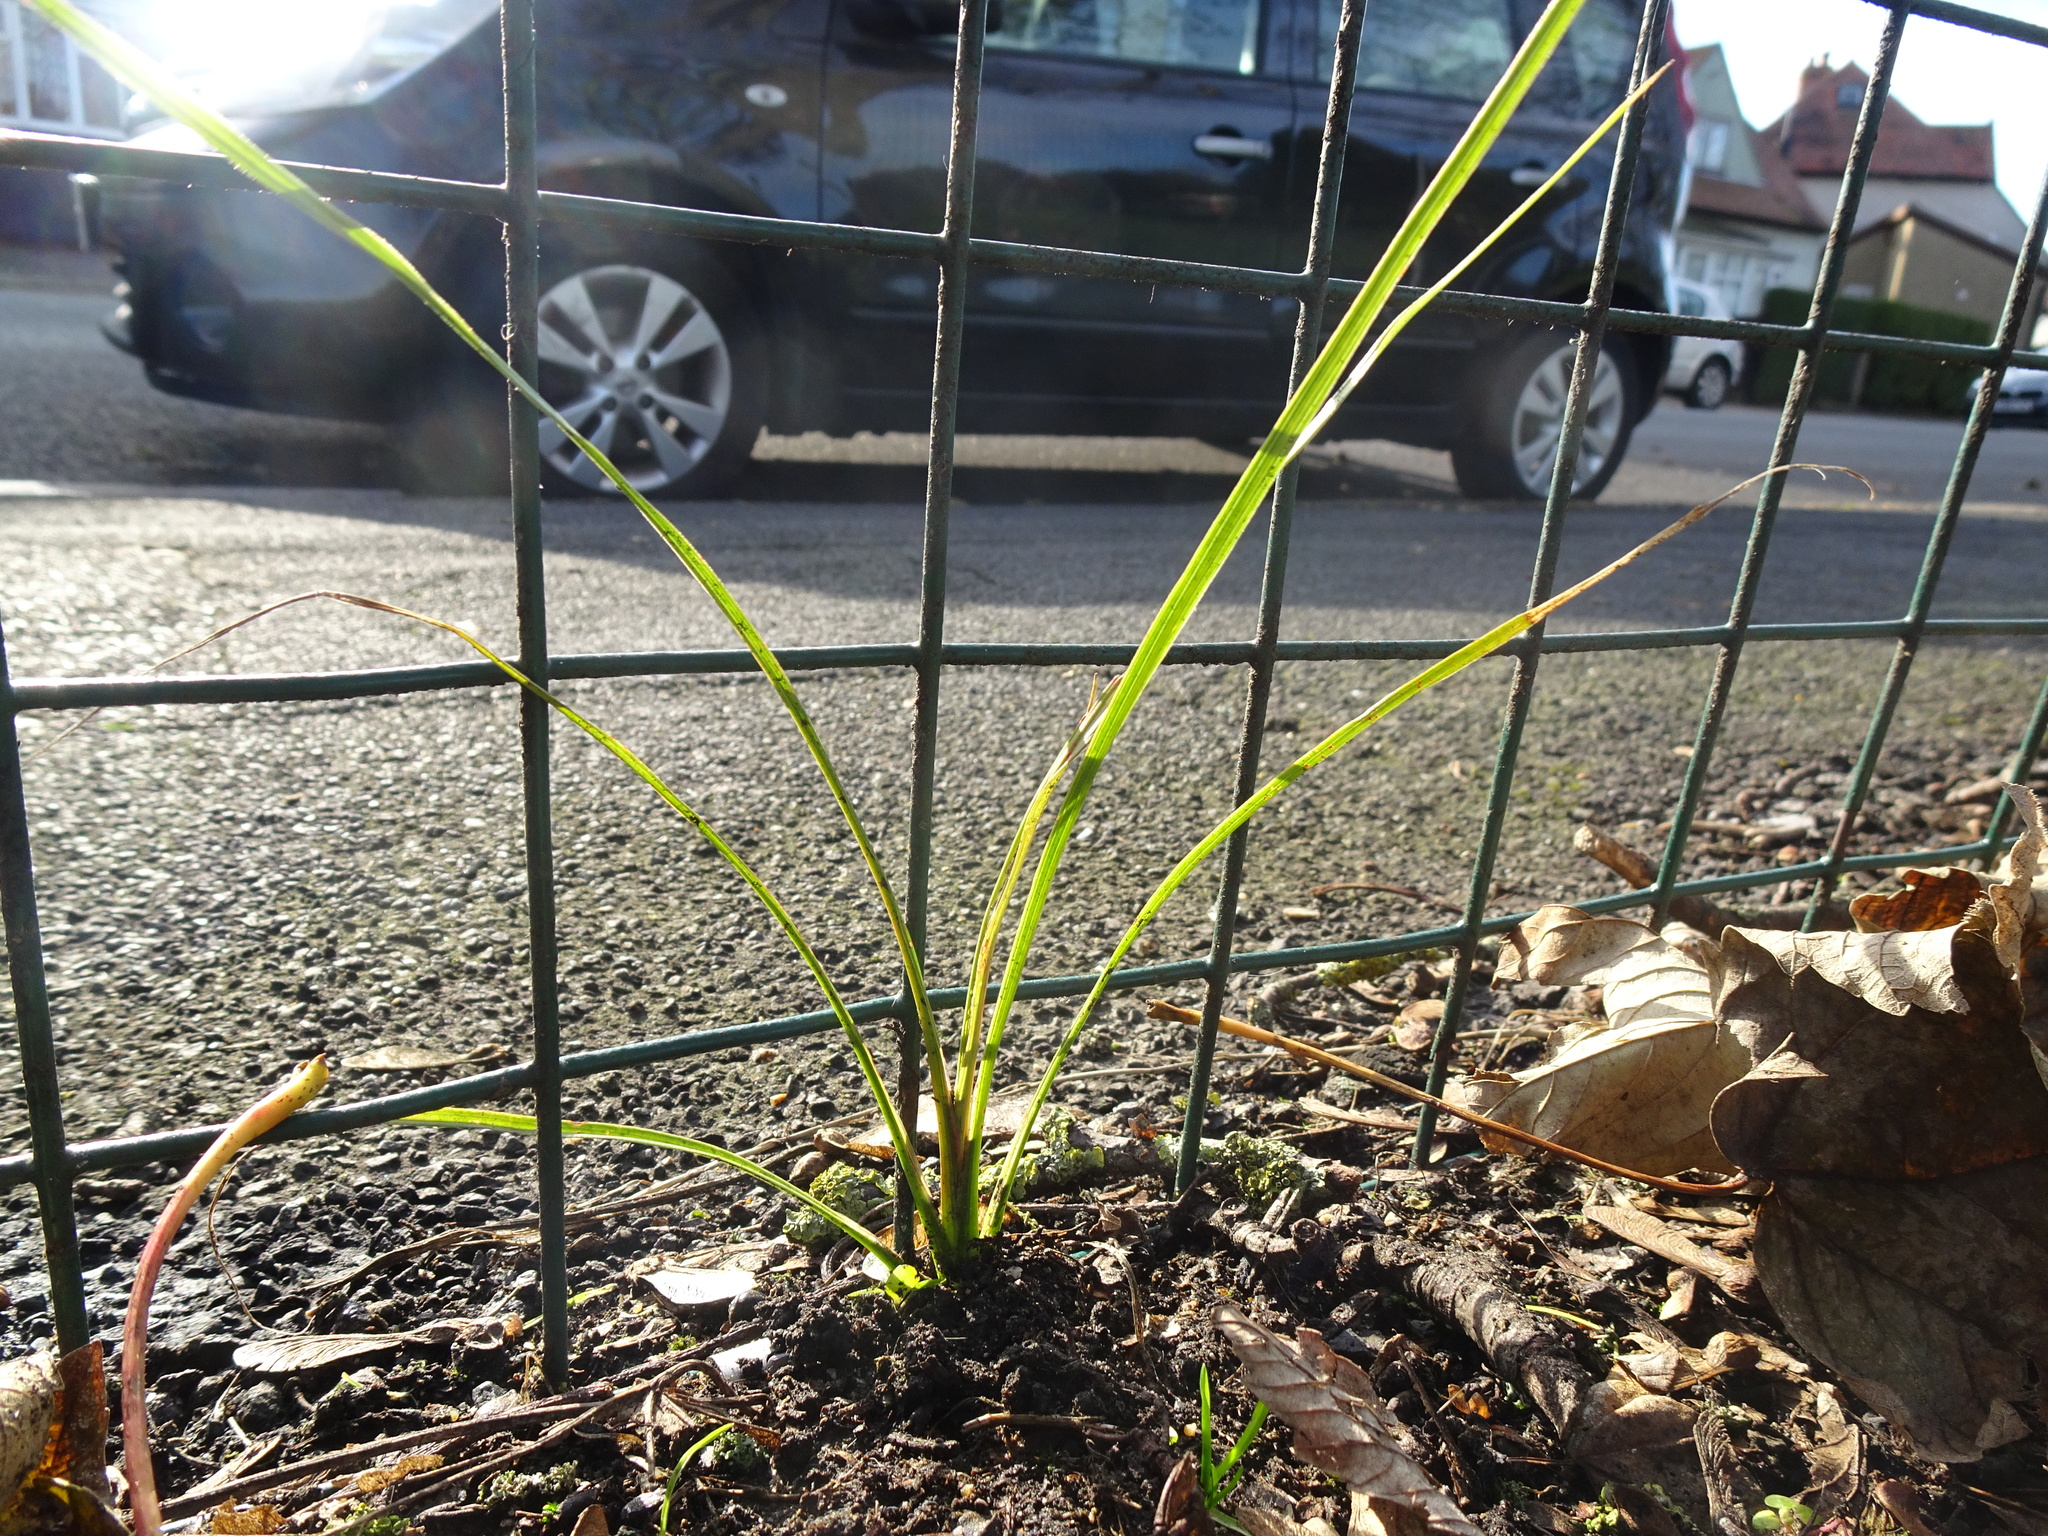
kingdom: Plantae
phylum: Tracheophyta
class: Liliopsida
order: Asparagales
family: Asparagaceae
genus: Cordyline
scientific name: Cordyline australis
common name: Cabbage-palm
